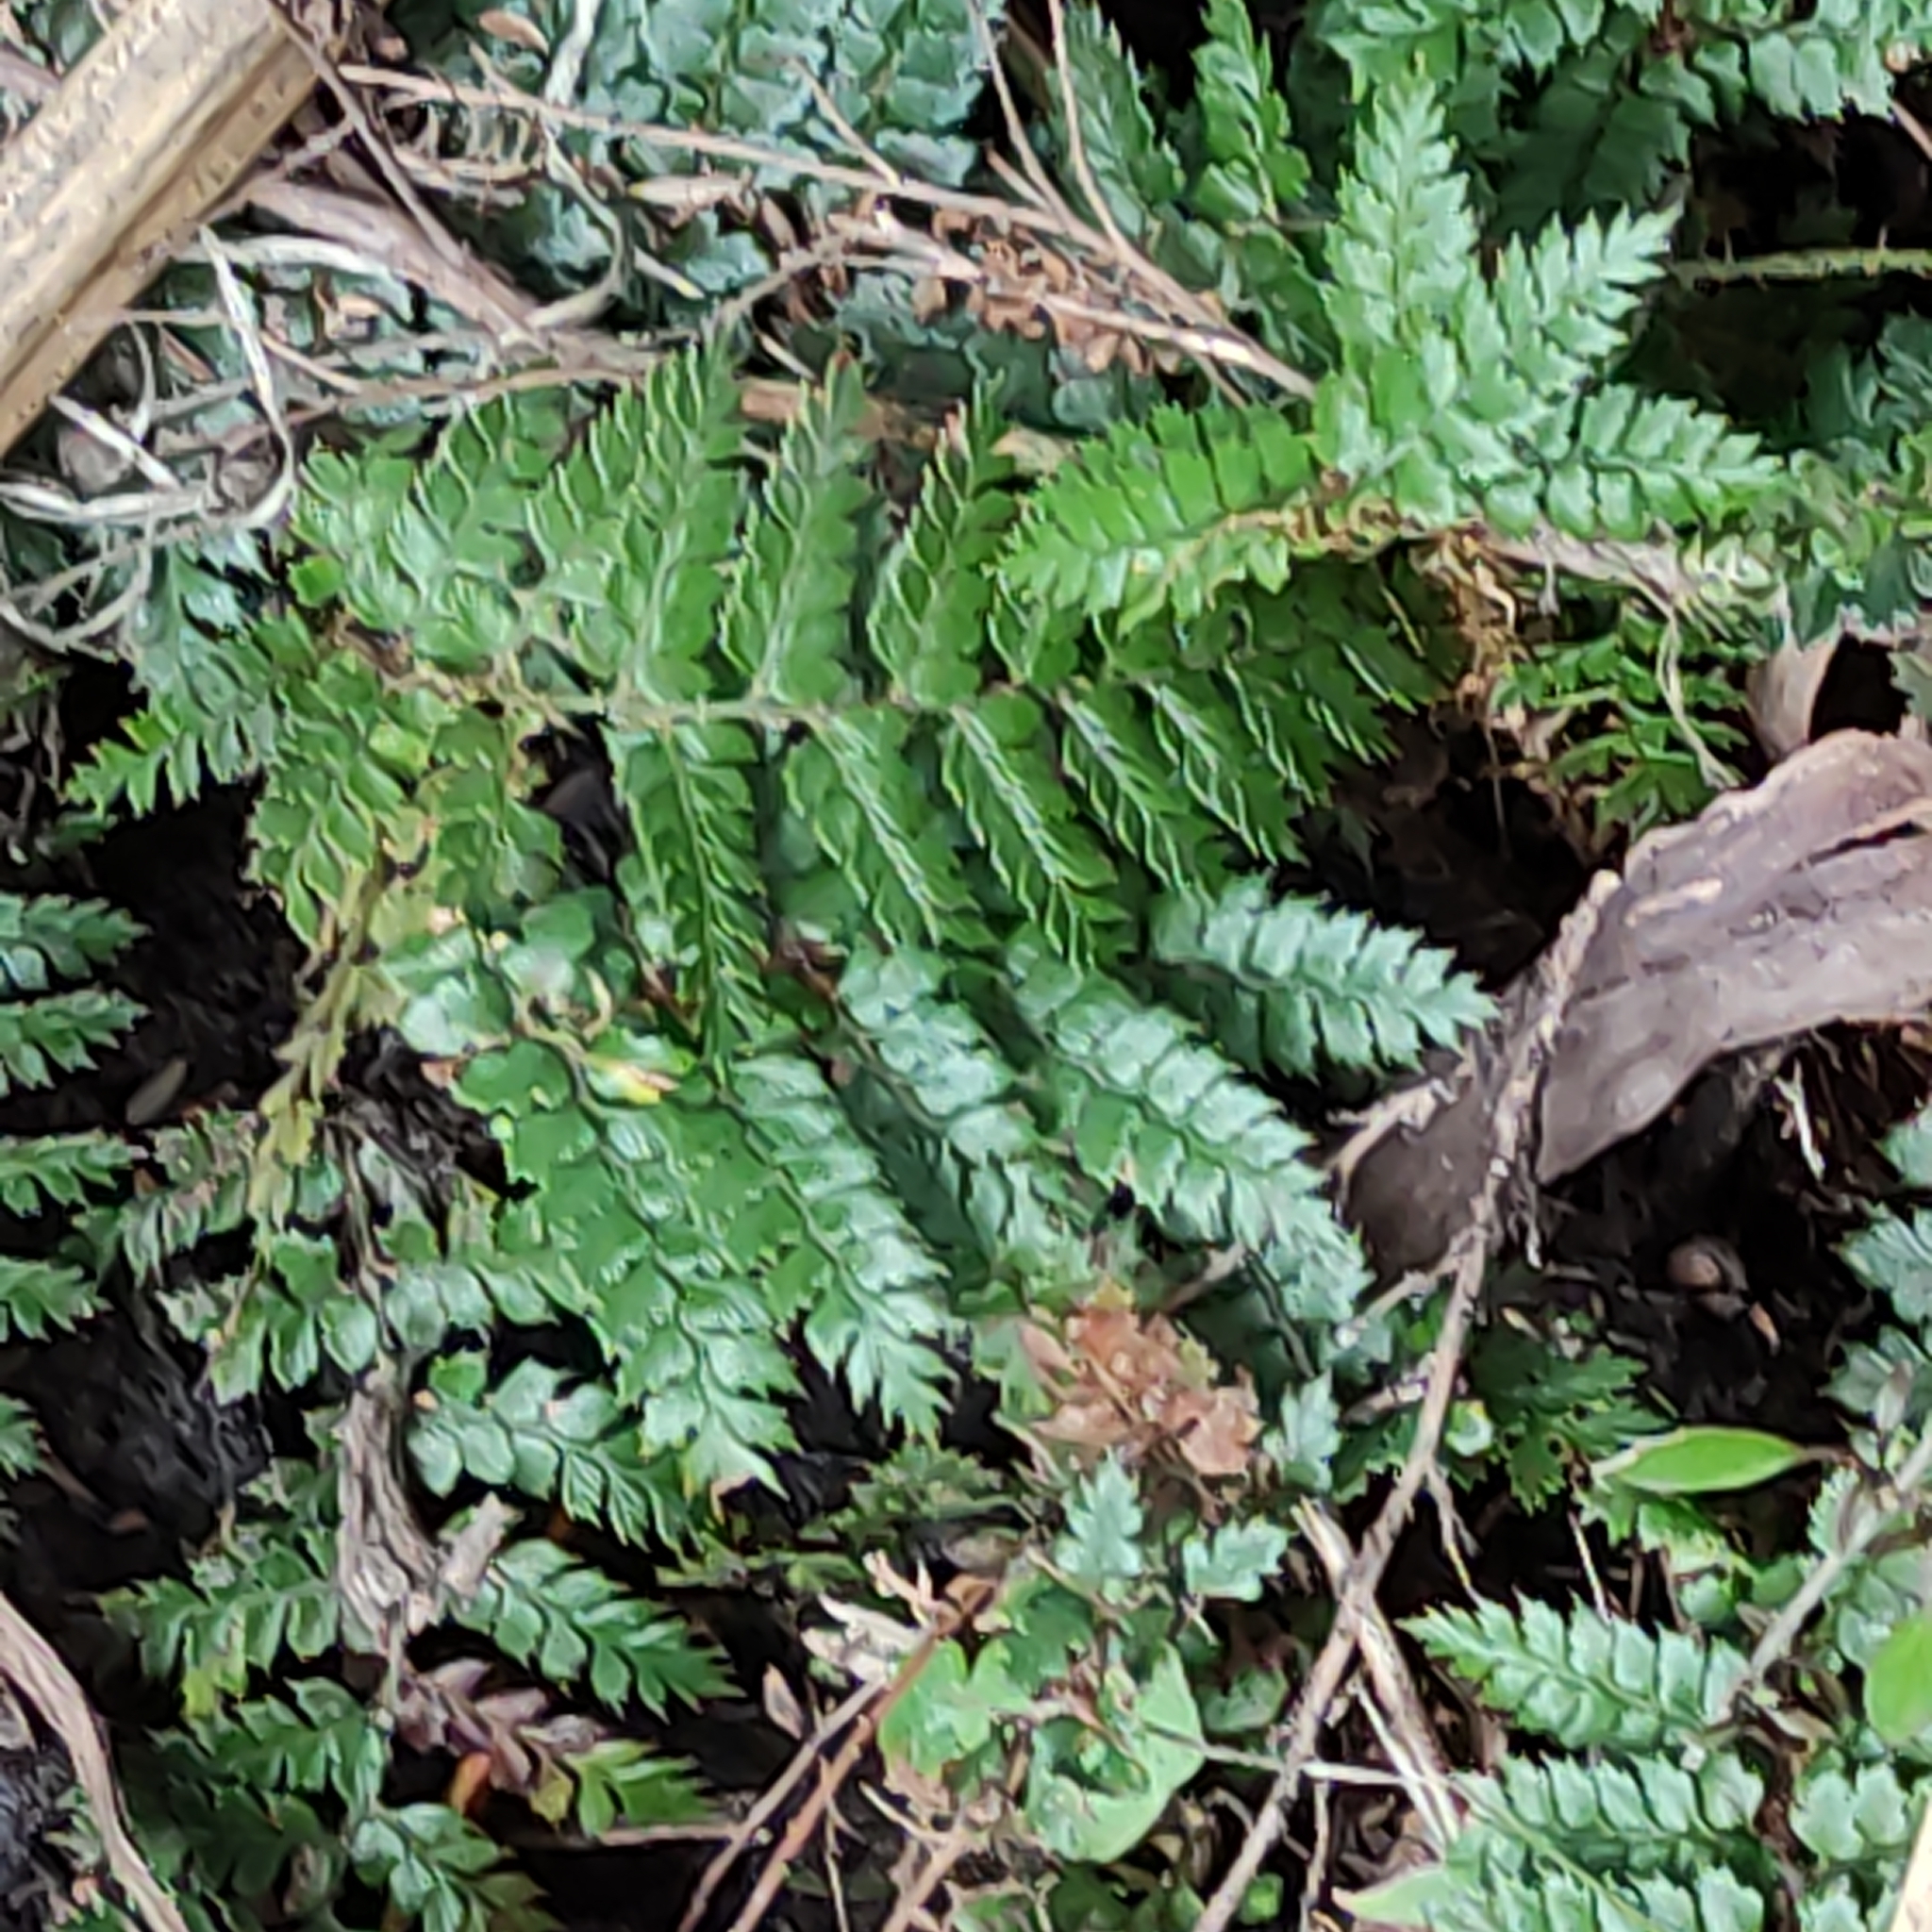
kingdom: Plantae
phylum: Tracheophyta
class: Polypodiopsida
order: Polypodiales
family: Dryopteridaceae
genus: Polystichum
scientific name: Polystichum vestitum
